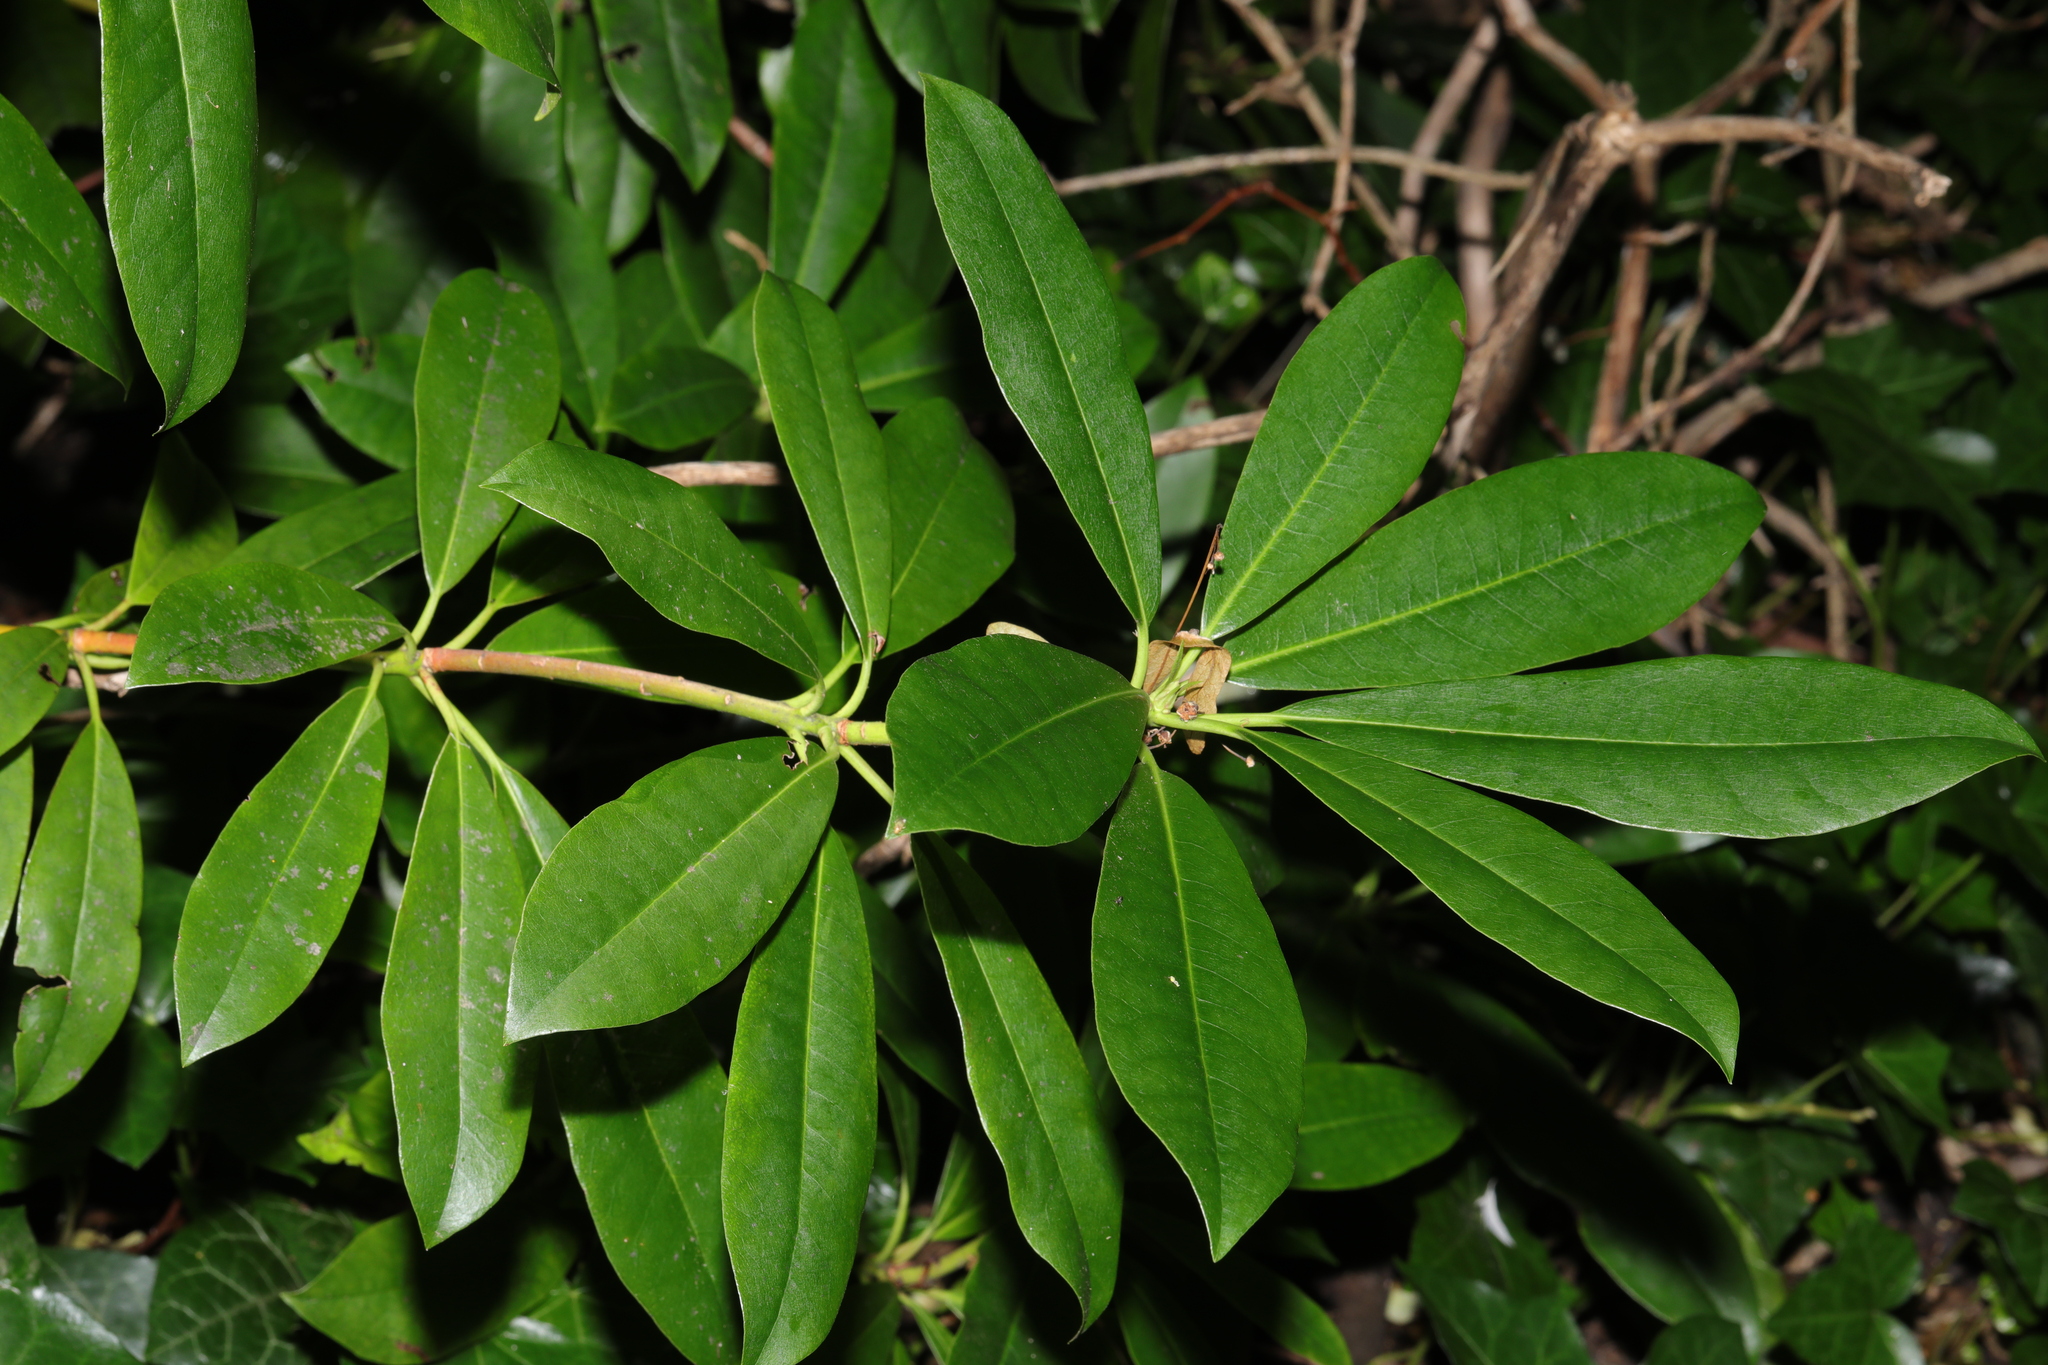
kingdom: Plantae
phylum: Tracheophyta
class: Magnoliopsida
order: Ericales
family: Ericaceae
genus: Rhododendron
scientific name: Rhododendron ponticum
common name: Rhododendron
